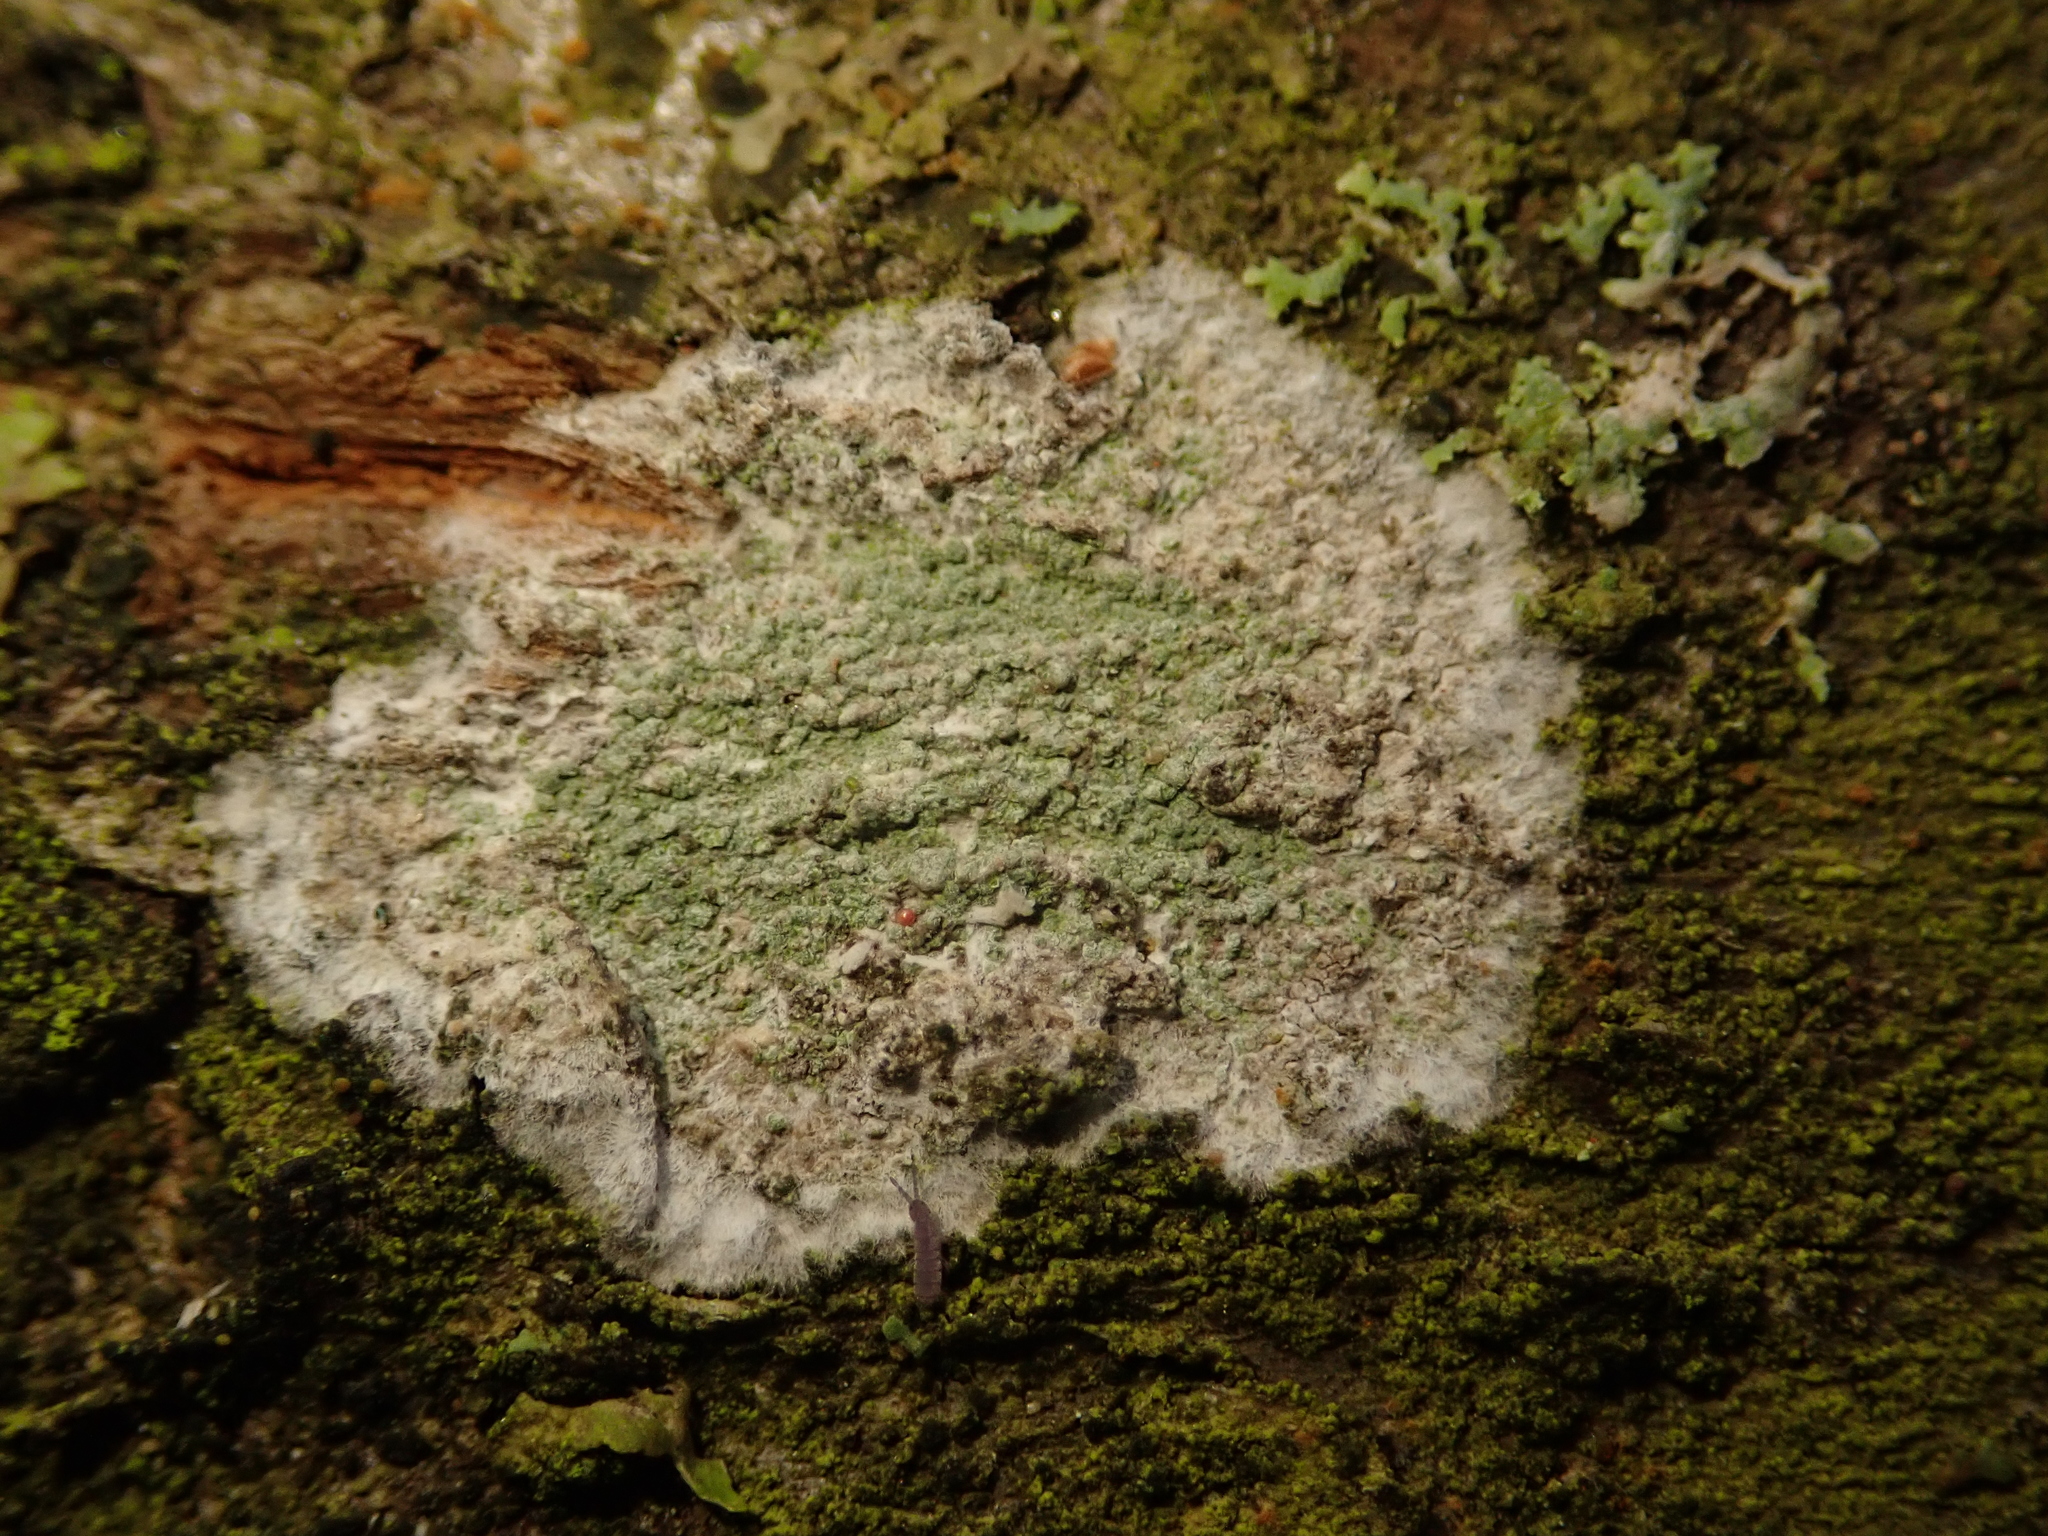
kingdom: Fungi
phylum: Ascomycota
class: Lecanoromycetes
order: Ostropales
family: Phlyctidaceae
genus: Phlyctis
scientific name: Phlyctis argena
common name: Whitewash lichen
